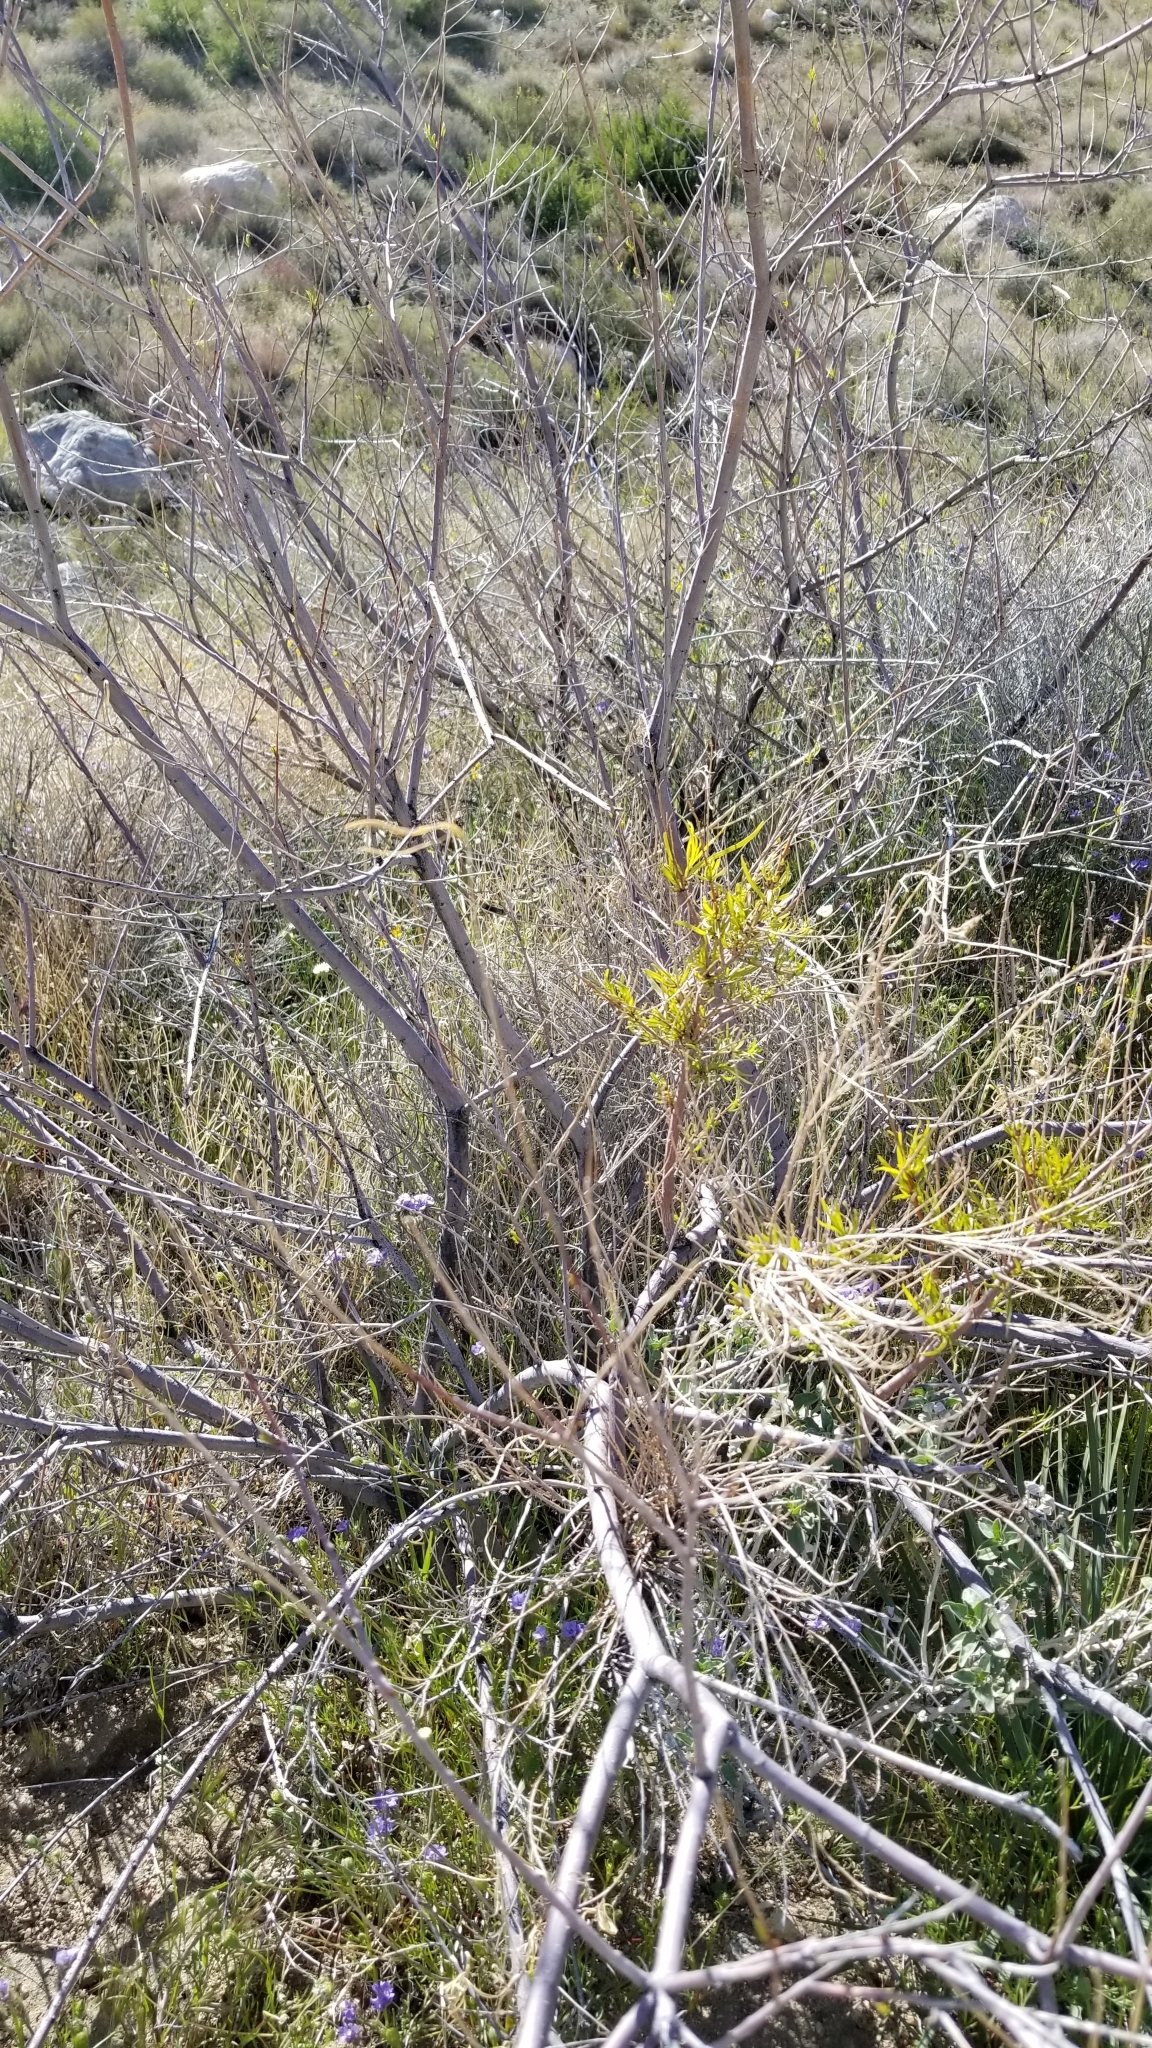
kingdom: Plantae
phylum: Tracheophyta
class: Magnoliopsida
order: Lamiales
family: Bignoniaceae
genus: Chilopsis
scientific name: Chilopsis linearis
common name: Desert-willow
